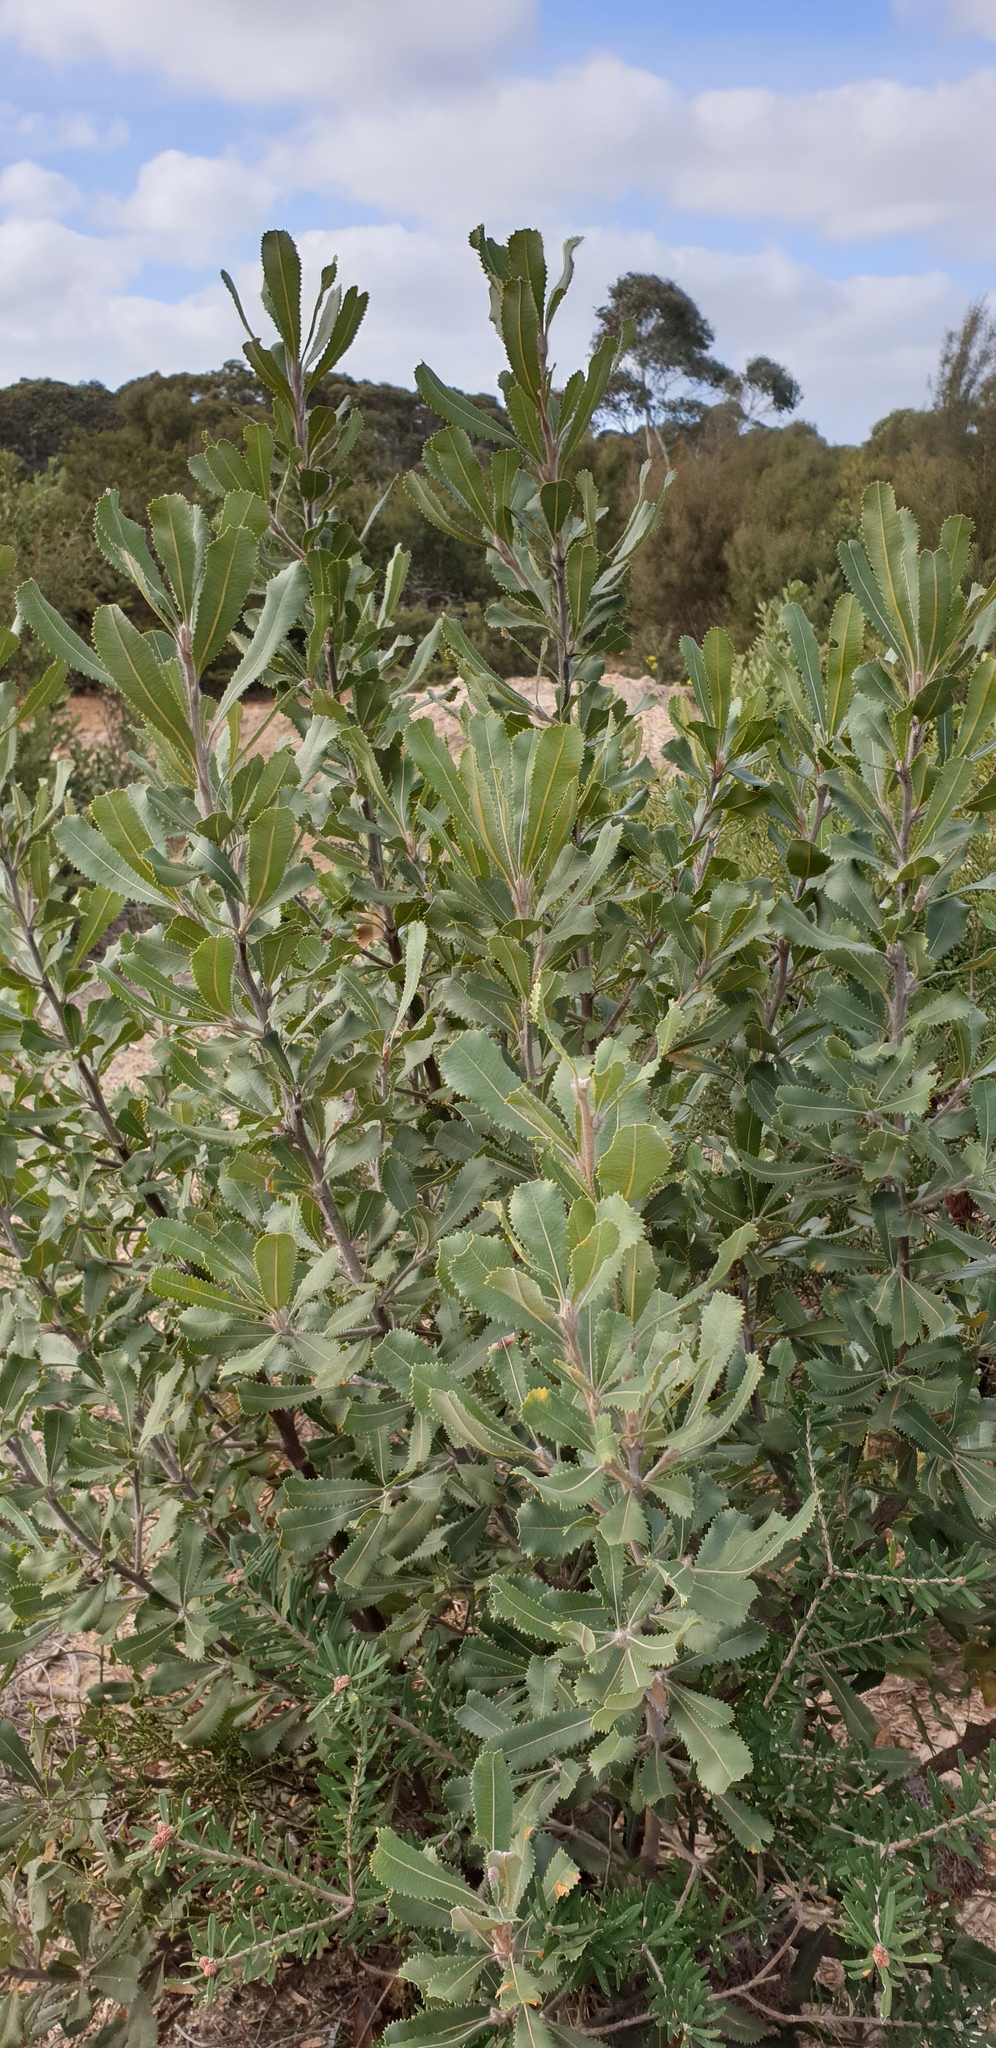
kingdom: Plantae
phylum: Tracheophyta
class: Magnoliopsida
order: Proteales
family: Proteaceae
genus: Banksia
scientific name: Banksia ornata
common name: Desert banksia
